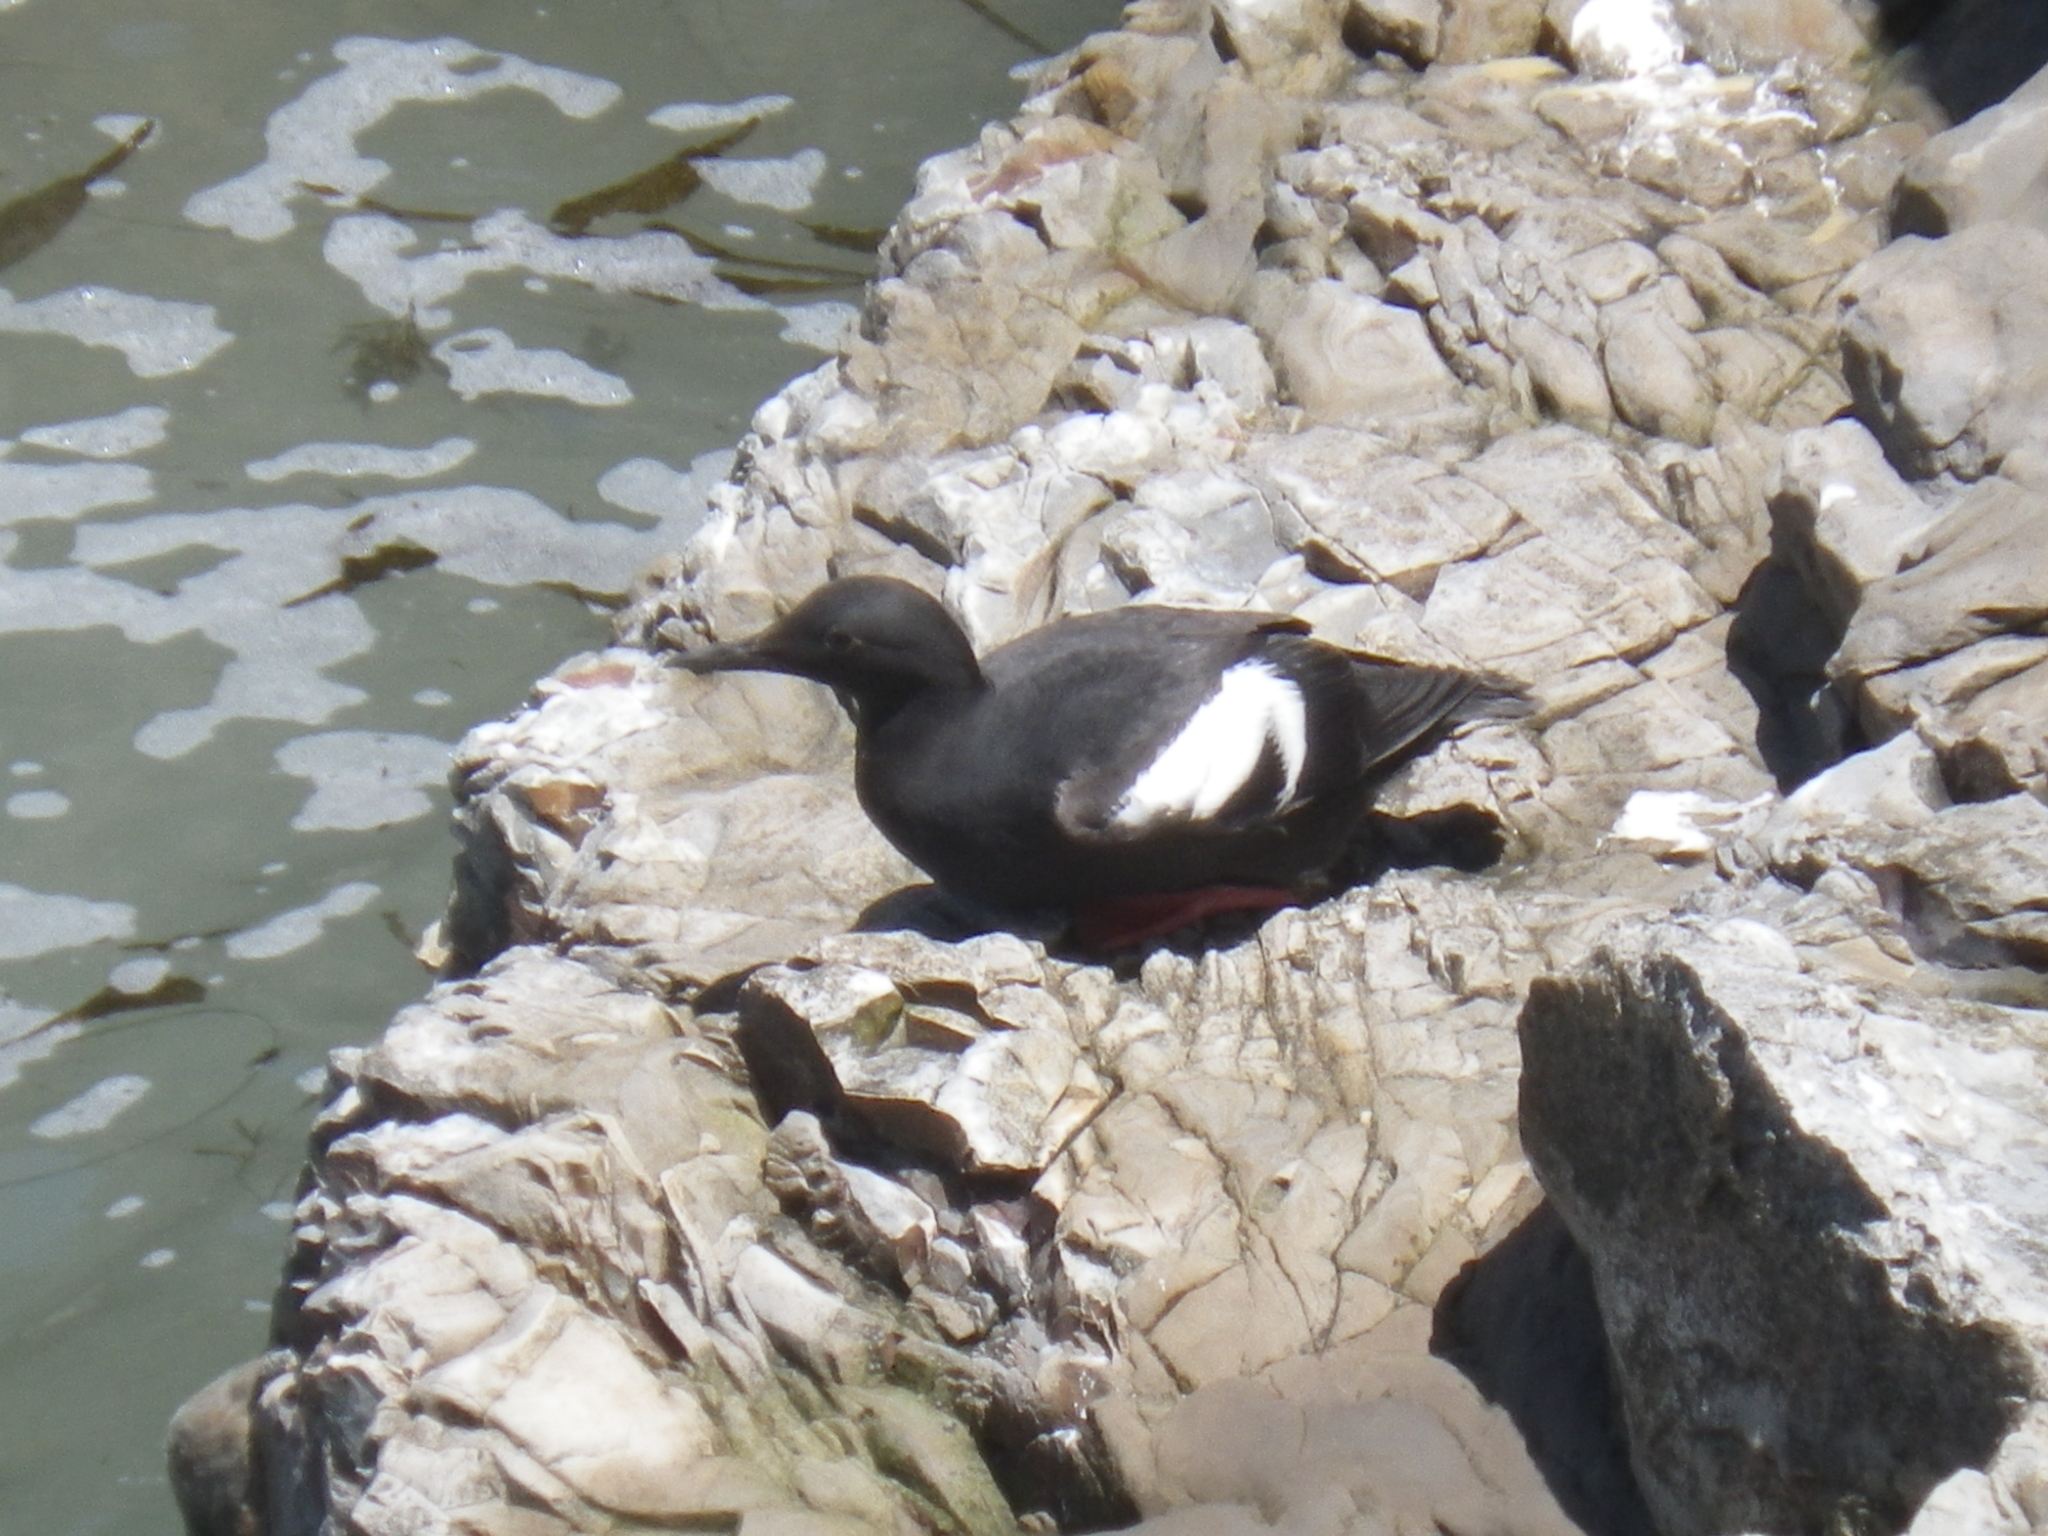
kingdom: Animalia
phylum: Chordata
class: Aves
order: Charadriiformes
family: Alcidae
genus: Cepphus
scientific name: Cepphus columba
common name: Pigeon guillemot
